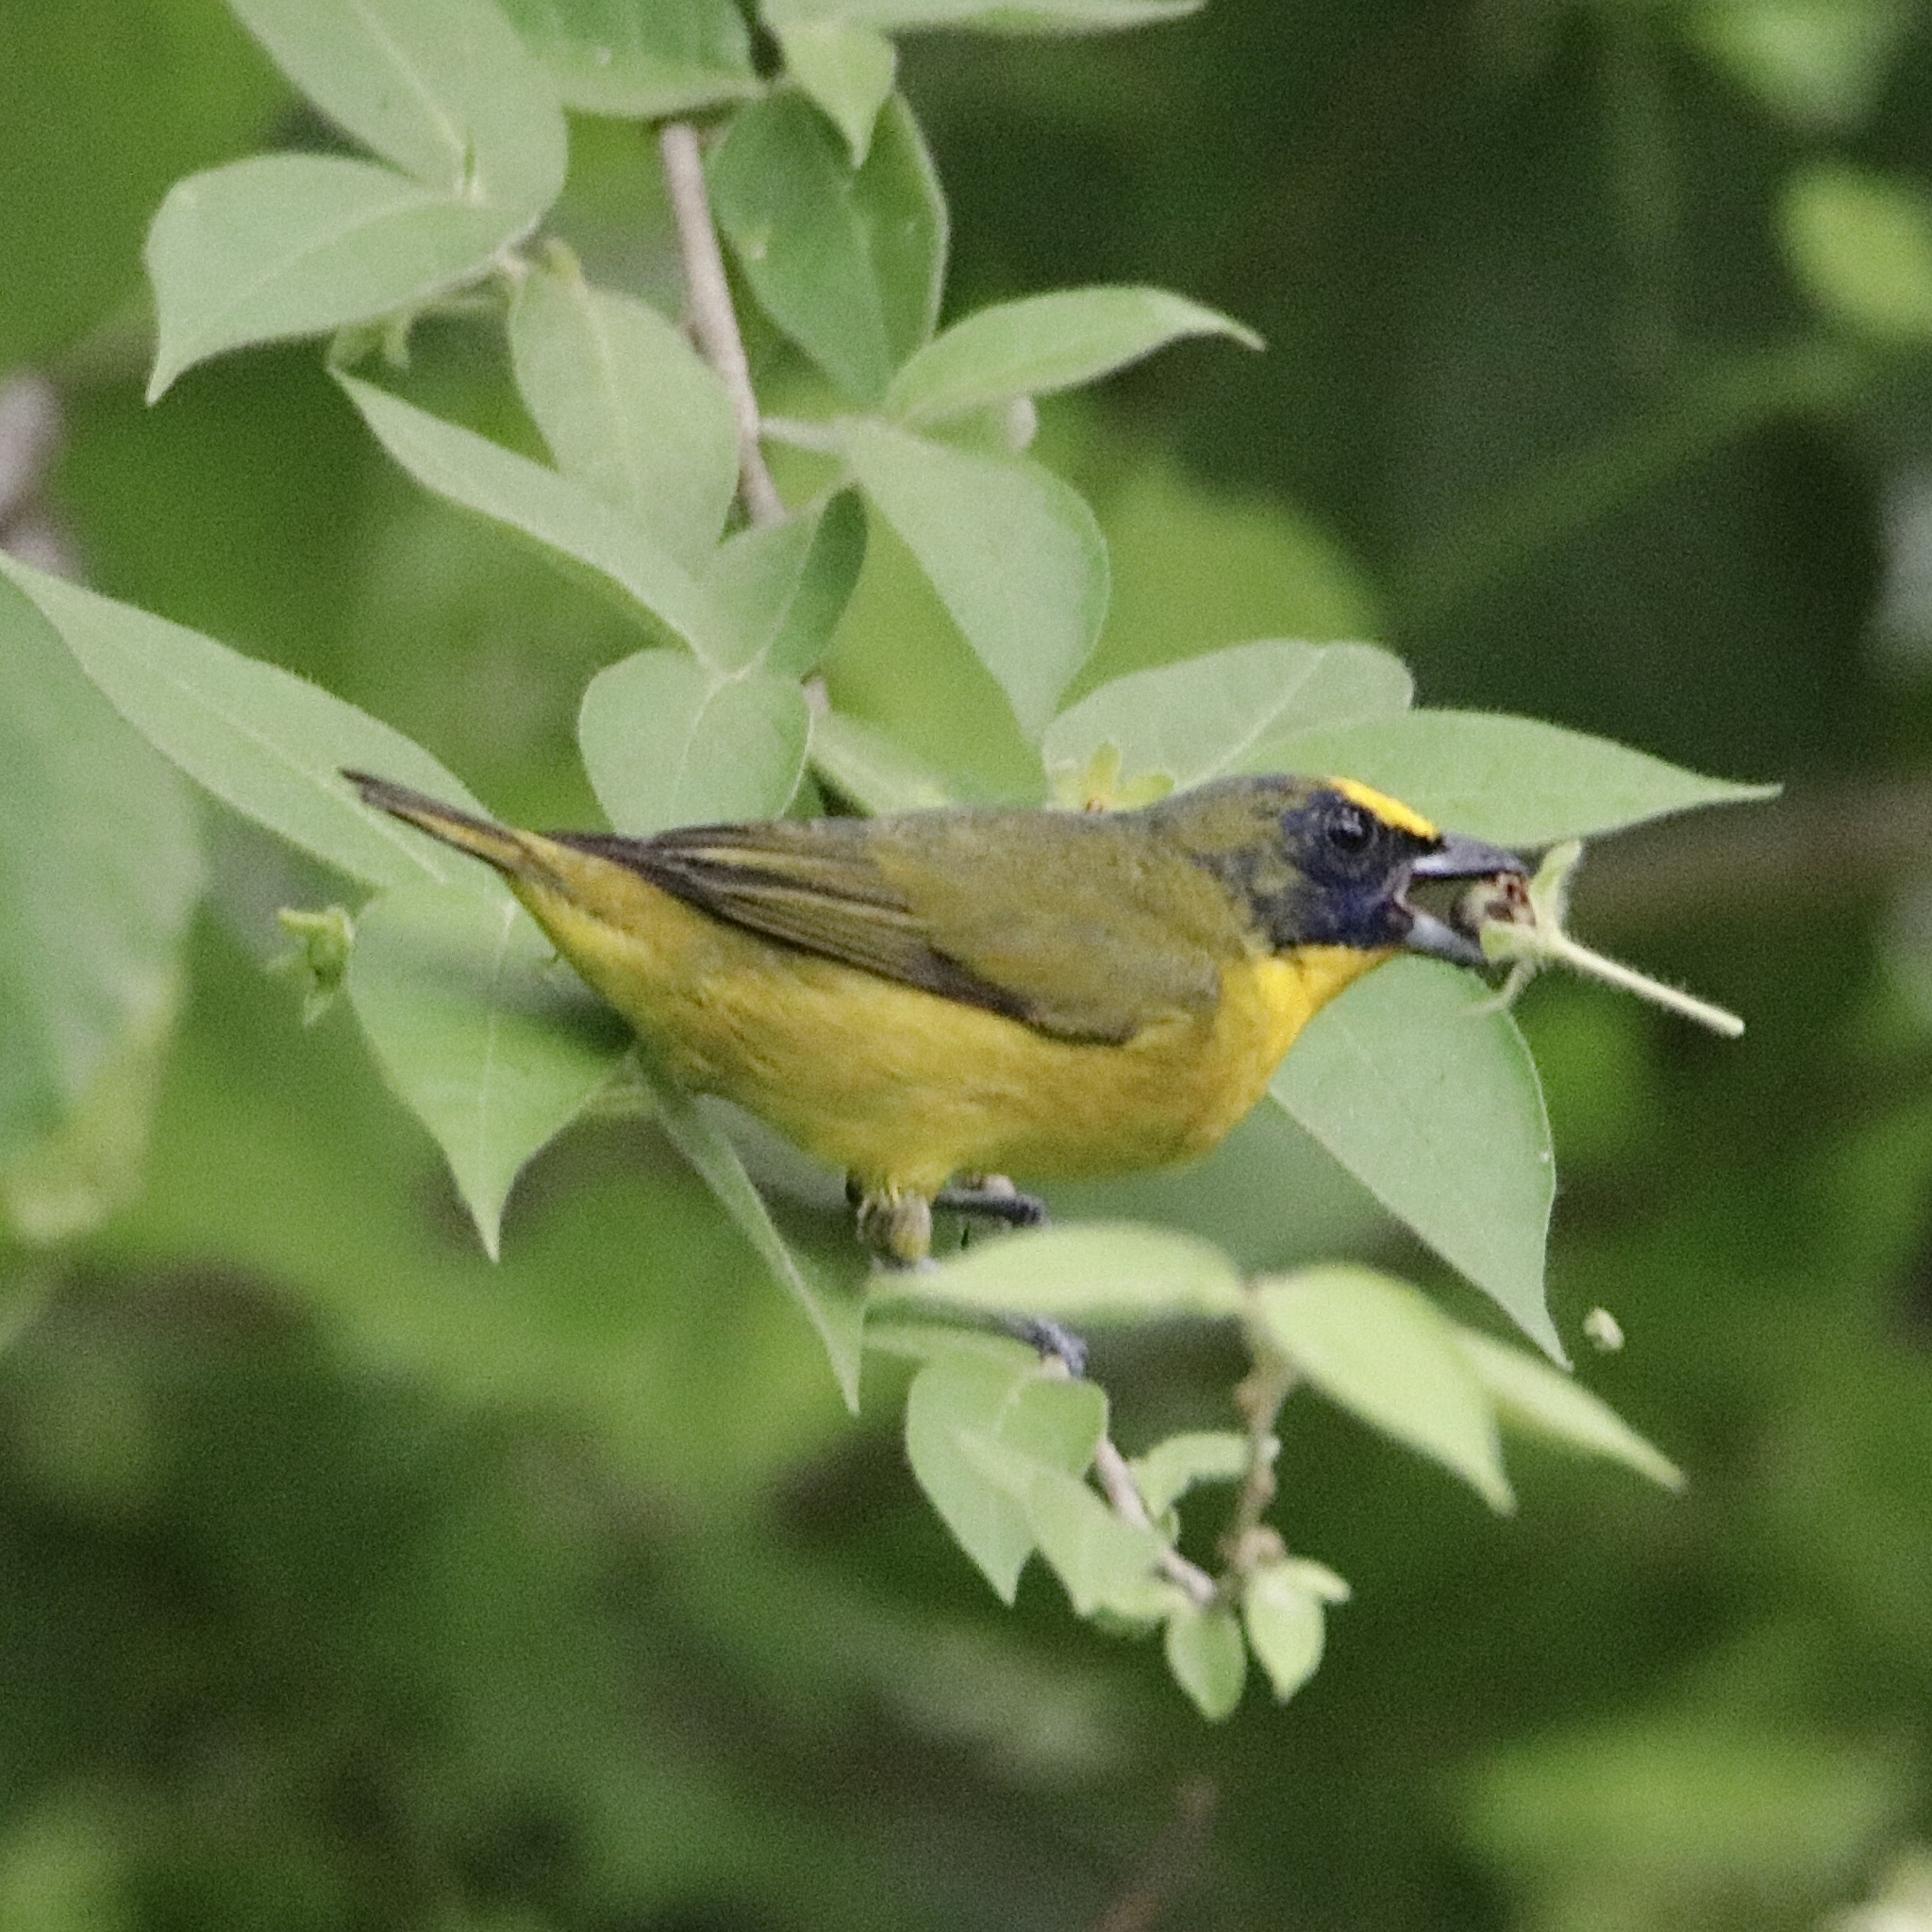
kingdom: Animalia
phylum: Chordata
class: Aves
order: Passeriformes
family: Fringillidae
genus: Euphonia
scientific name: Euphonia laniirostris
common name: Thick-billed euphonia
